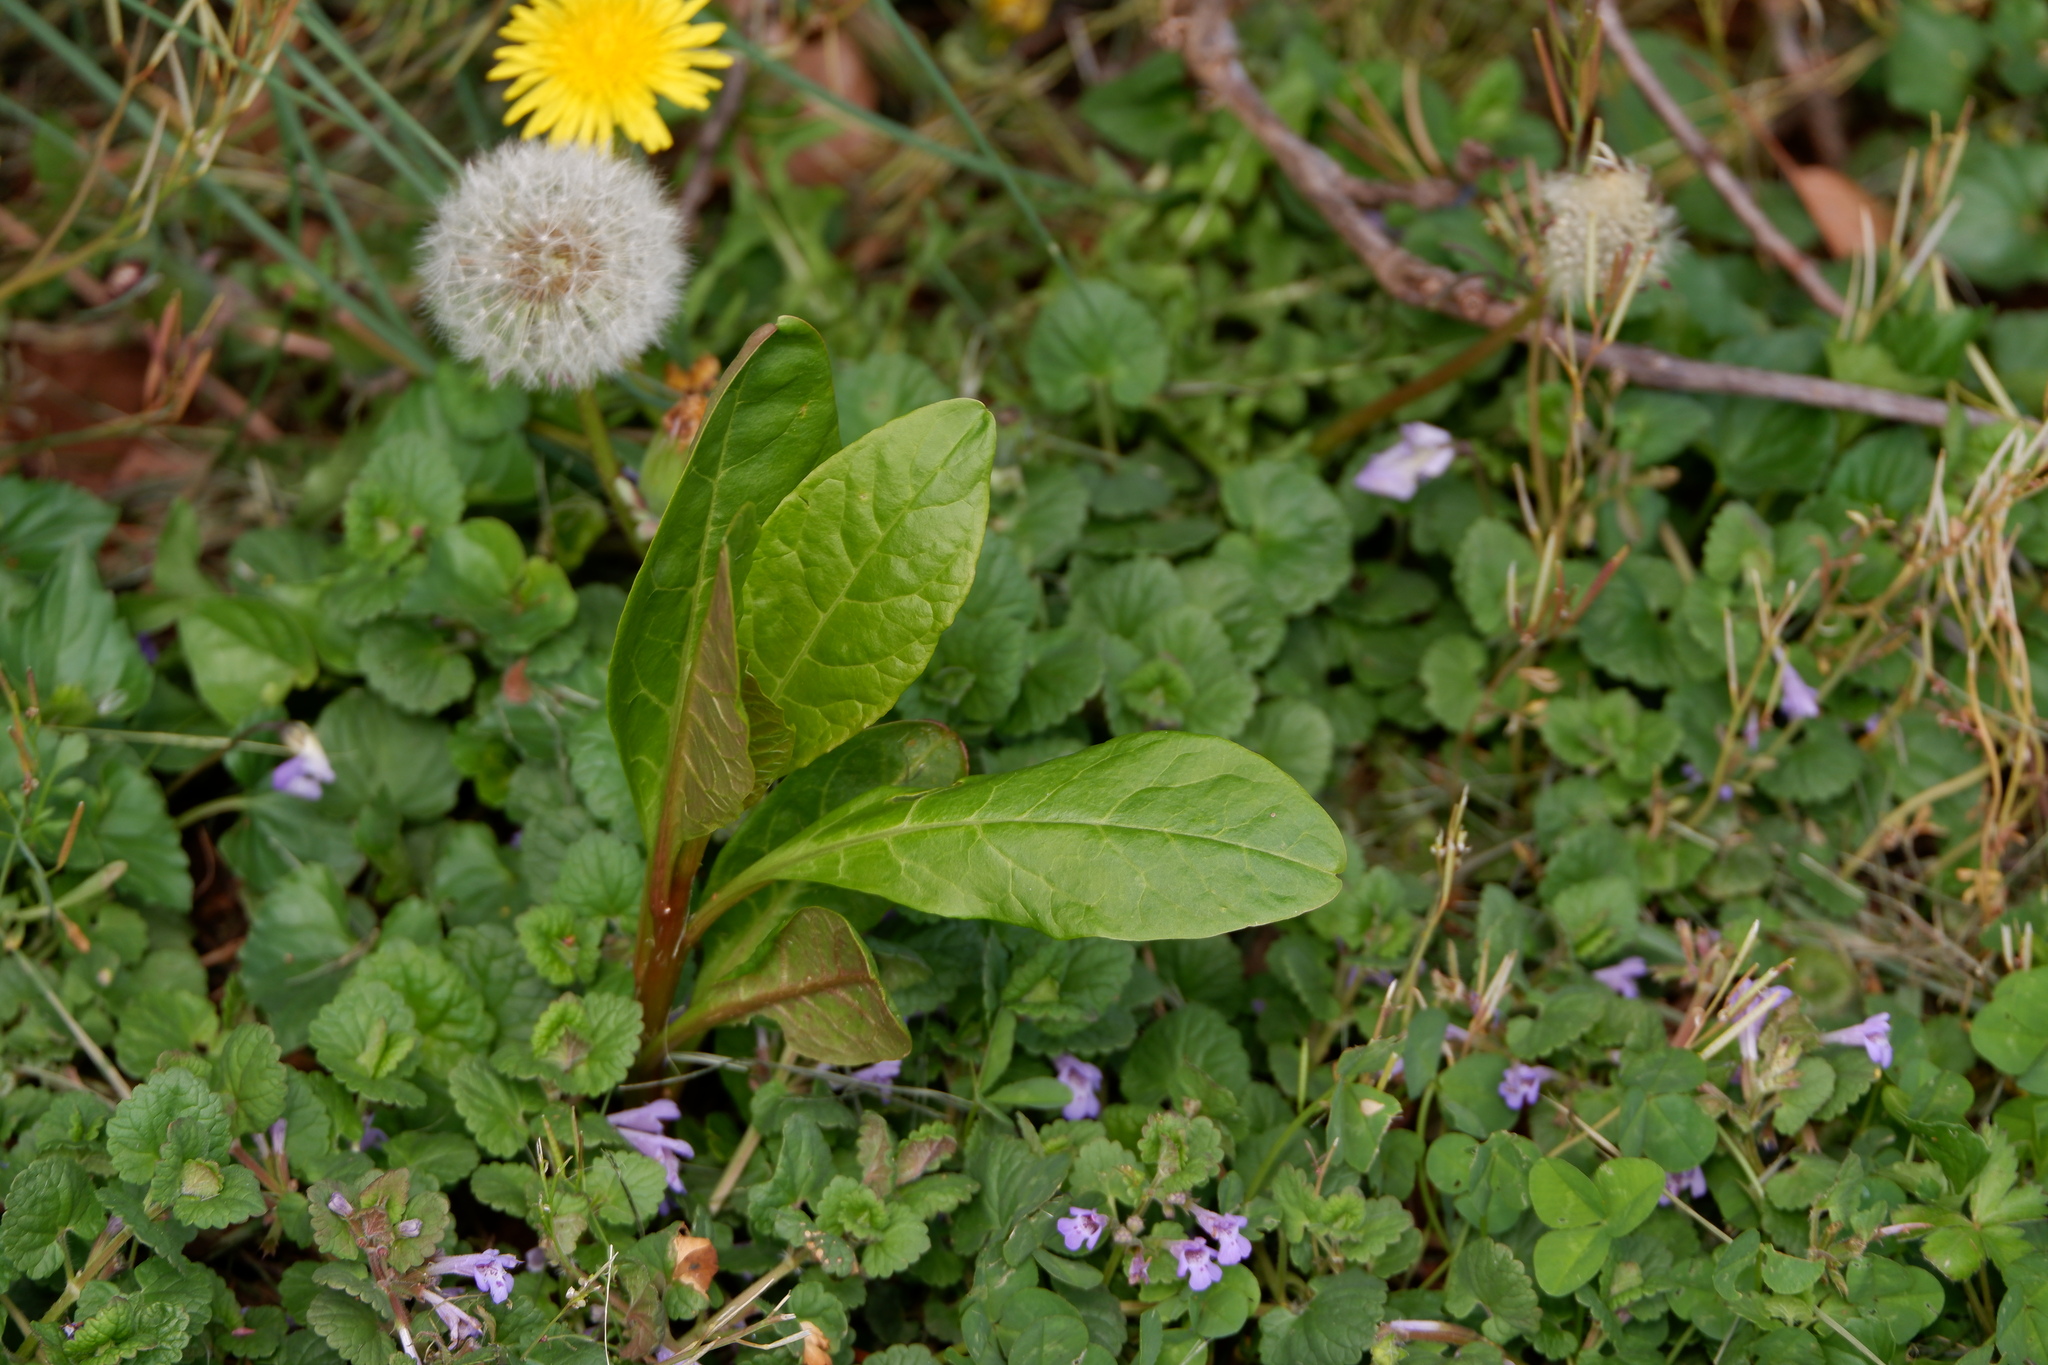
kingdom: Plantae
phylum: Tracheophyta
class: Magnoliopsida
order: Caryophyllales
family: Phytolaccaceae
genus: Phytolacca
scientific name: Phytolacca americana
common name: American pokeweed
